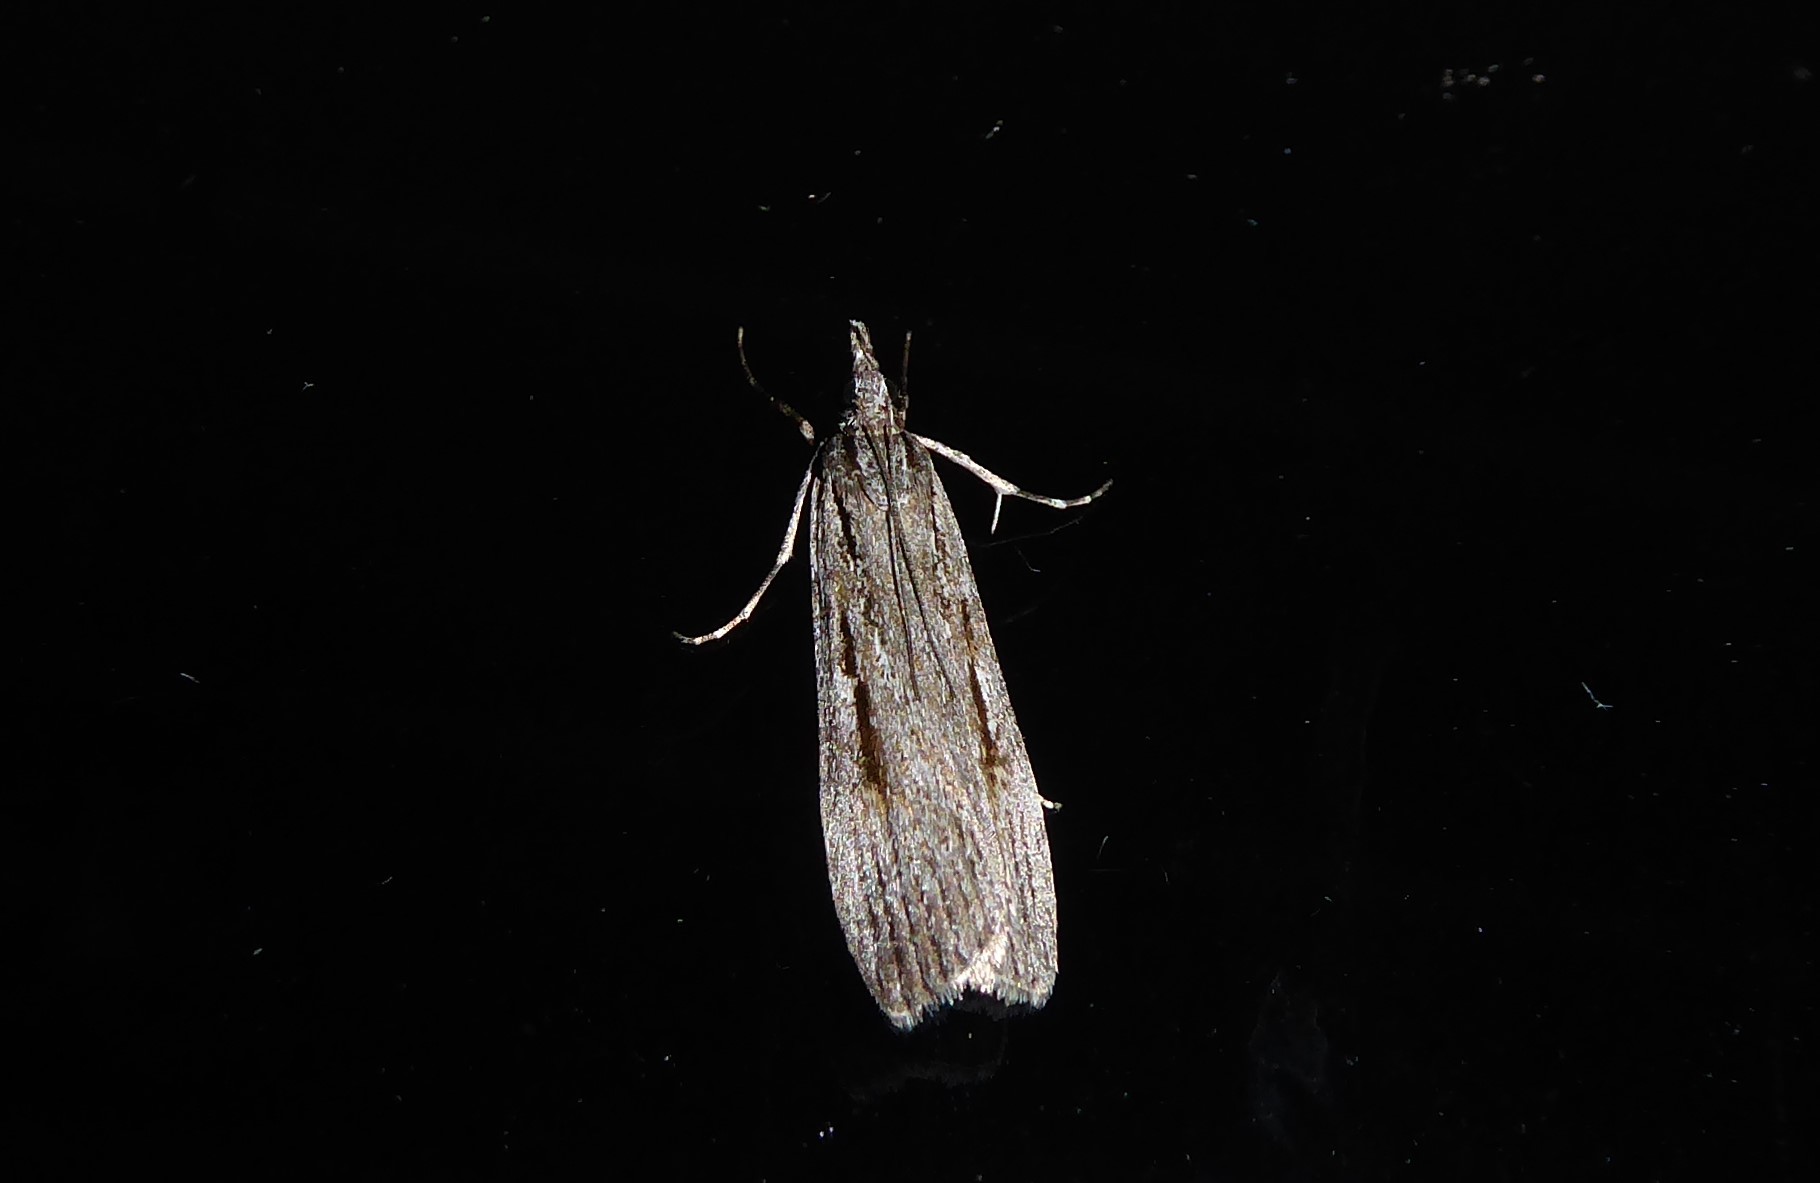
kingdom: Animalia
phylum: Arthropoda
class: Insecta
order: Lepidoptera
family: Crambidae
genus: Scoparia
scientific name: Scoparia indistinctalis
